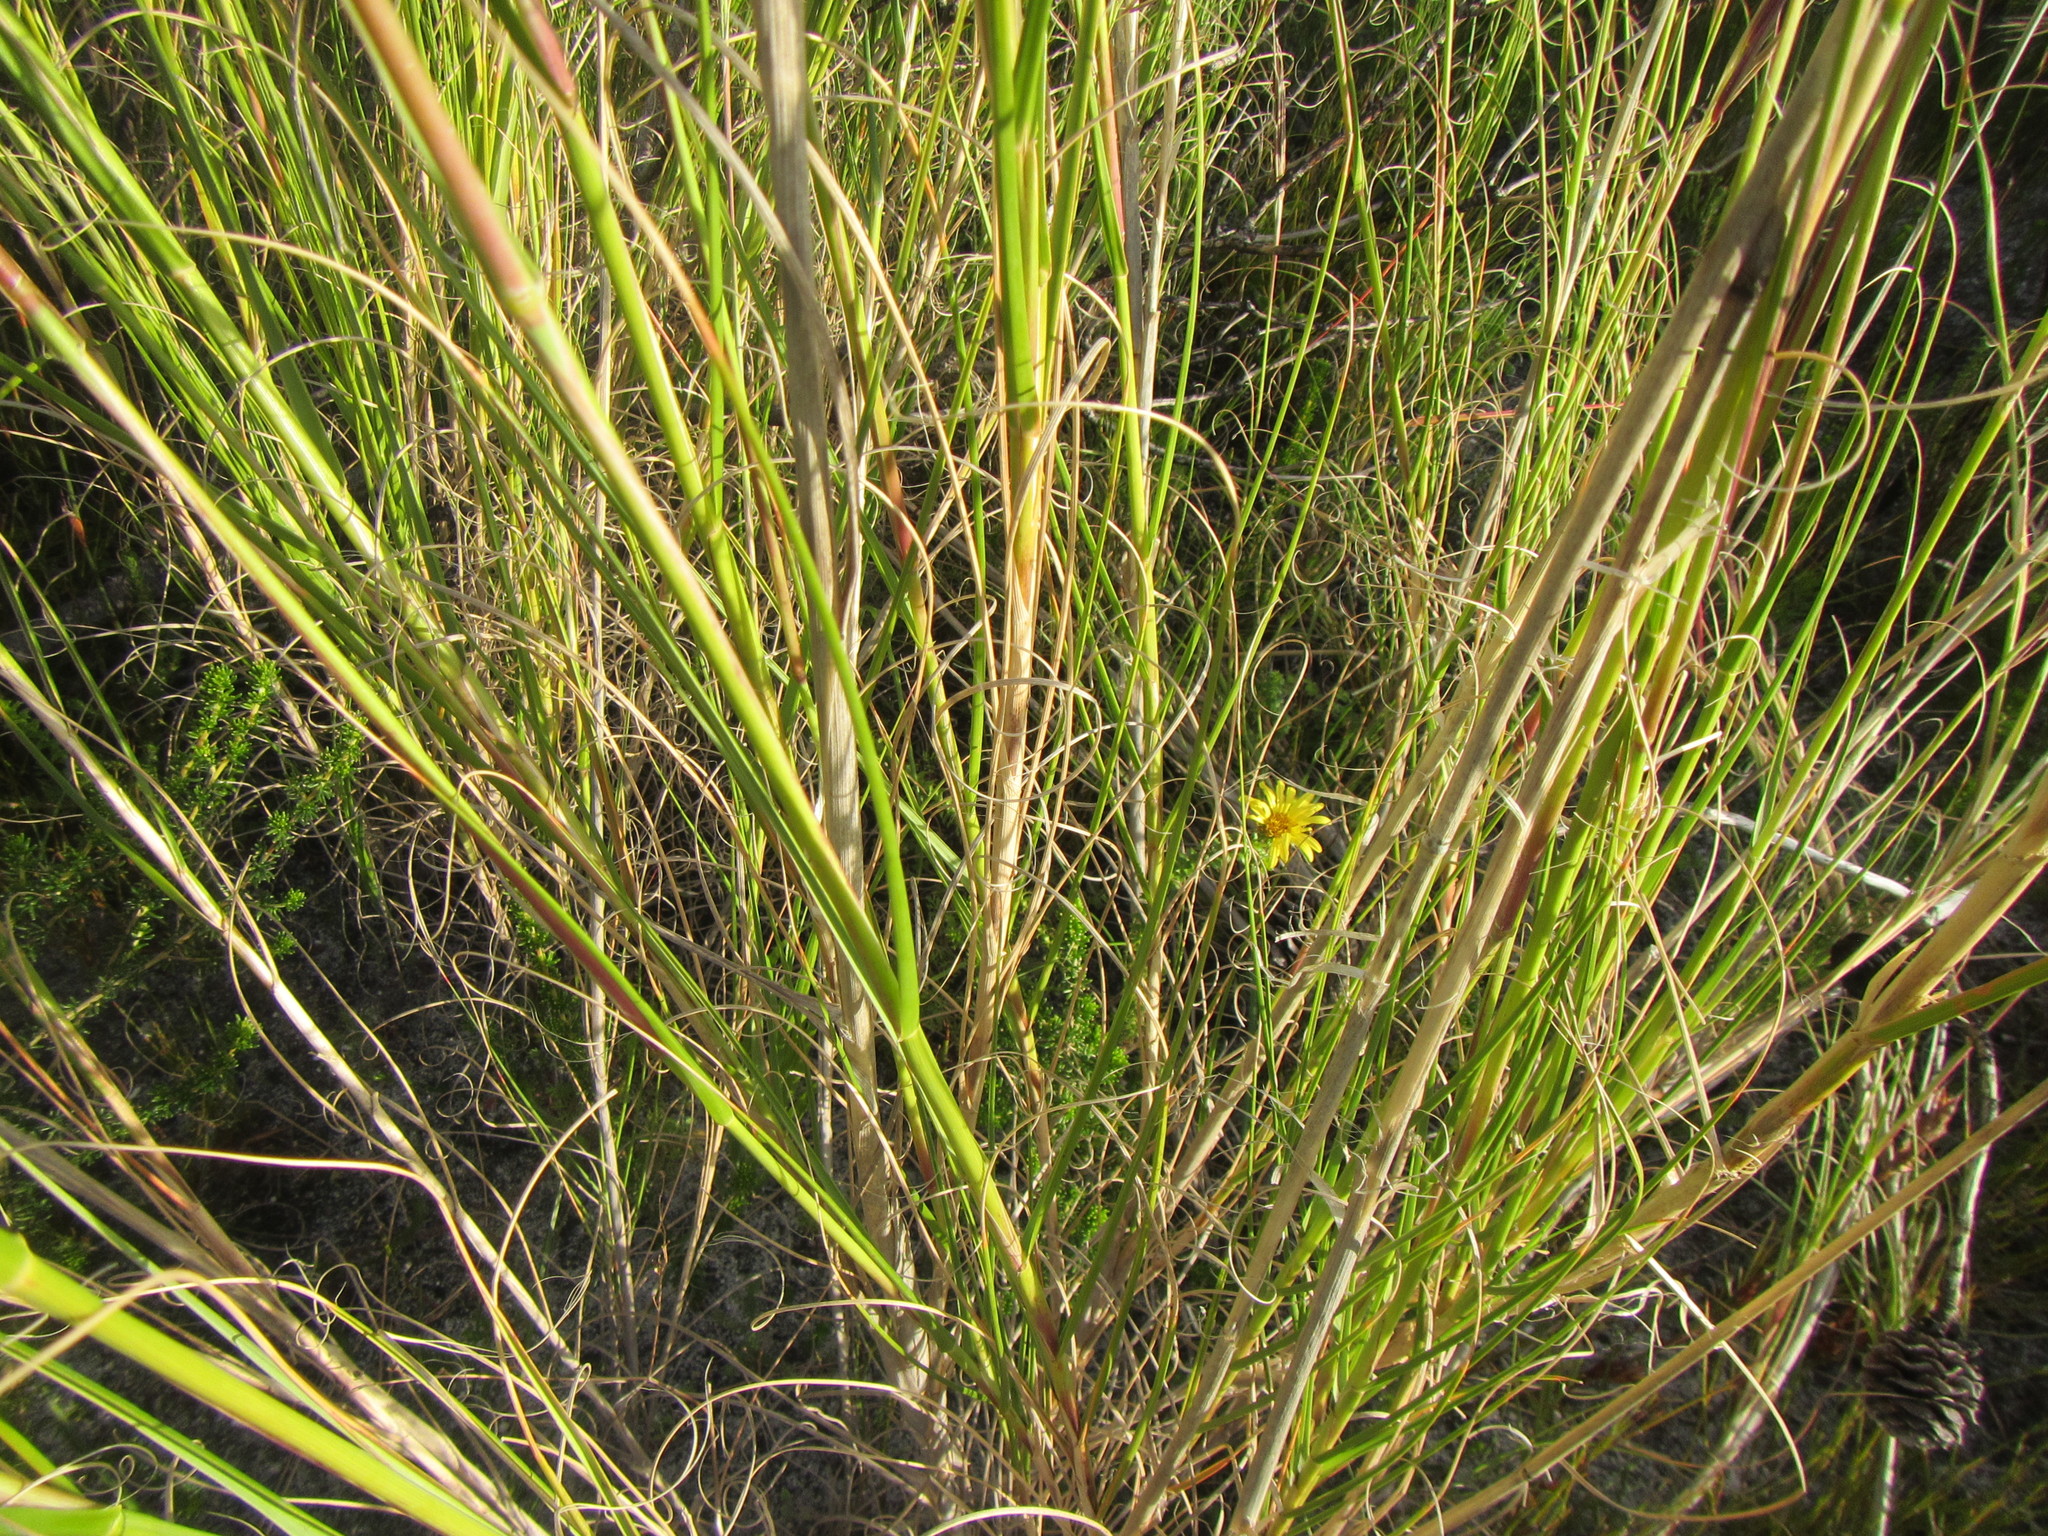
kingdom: Plantae
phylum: Tracheophyta
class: Liliopsida
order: Poales
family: Poaceae
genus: Pseudopentameris
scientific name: Pseudopentameris macrantha
